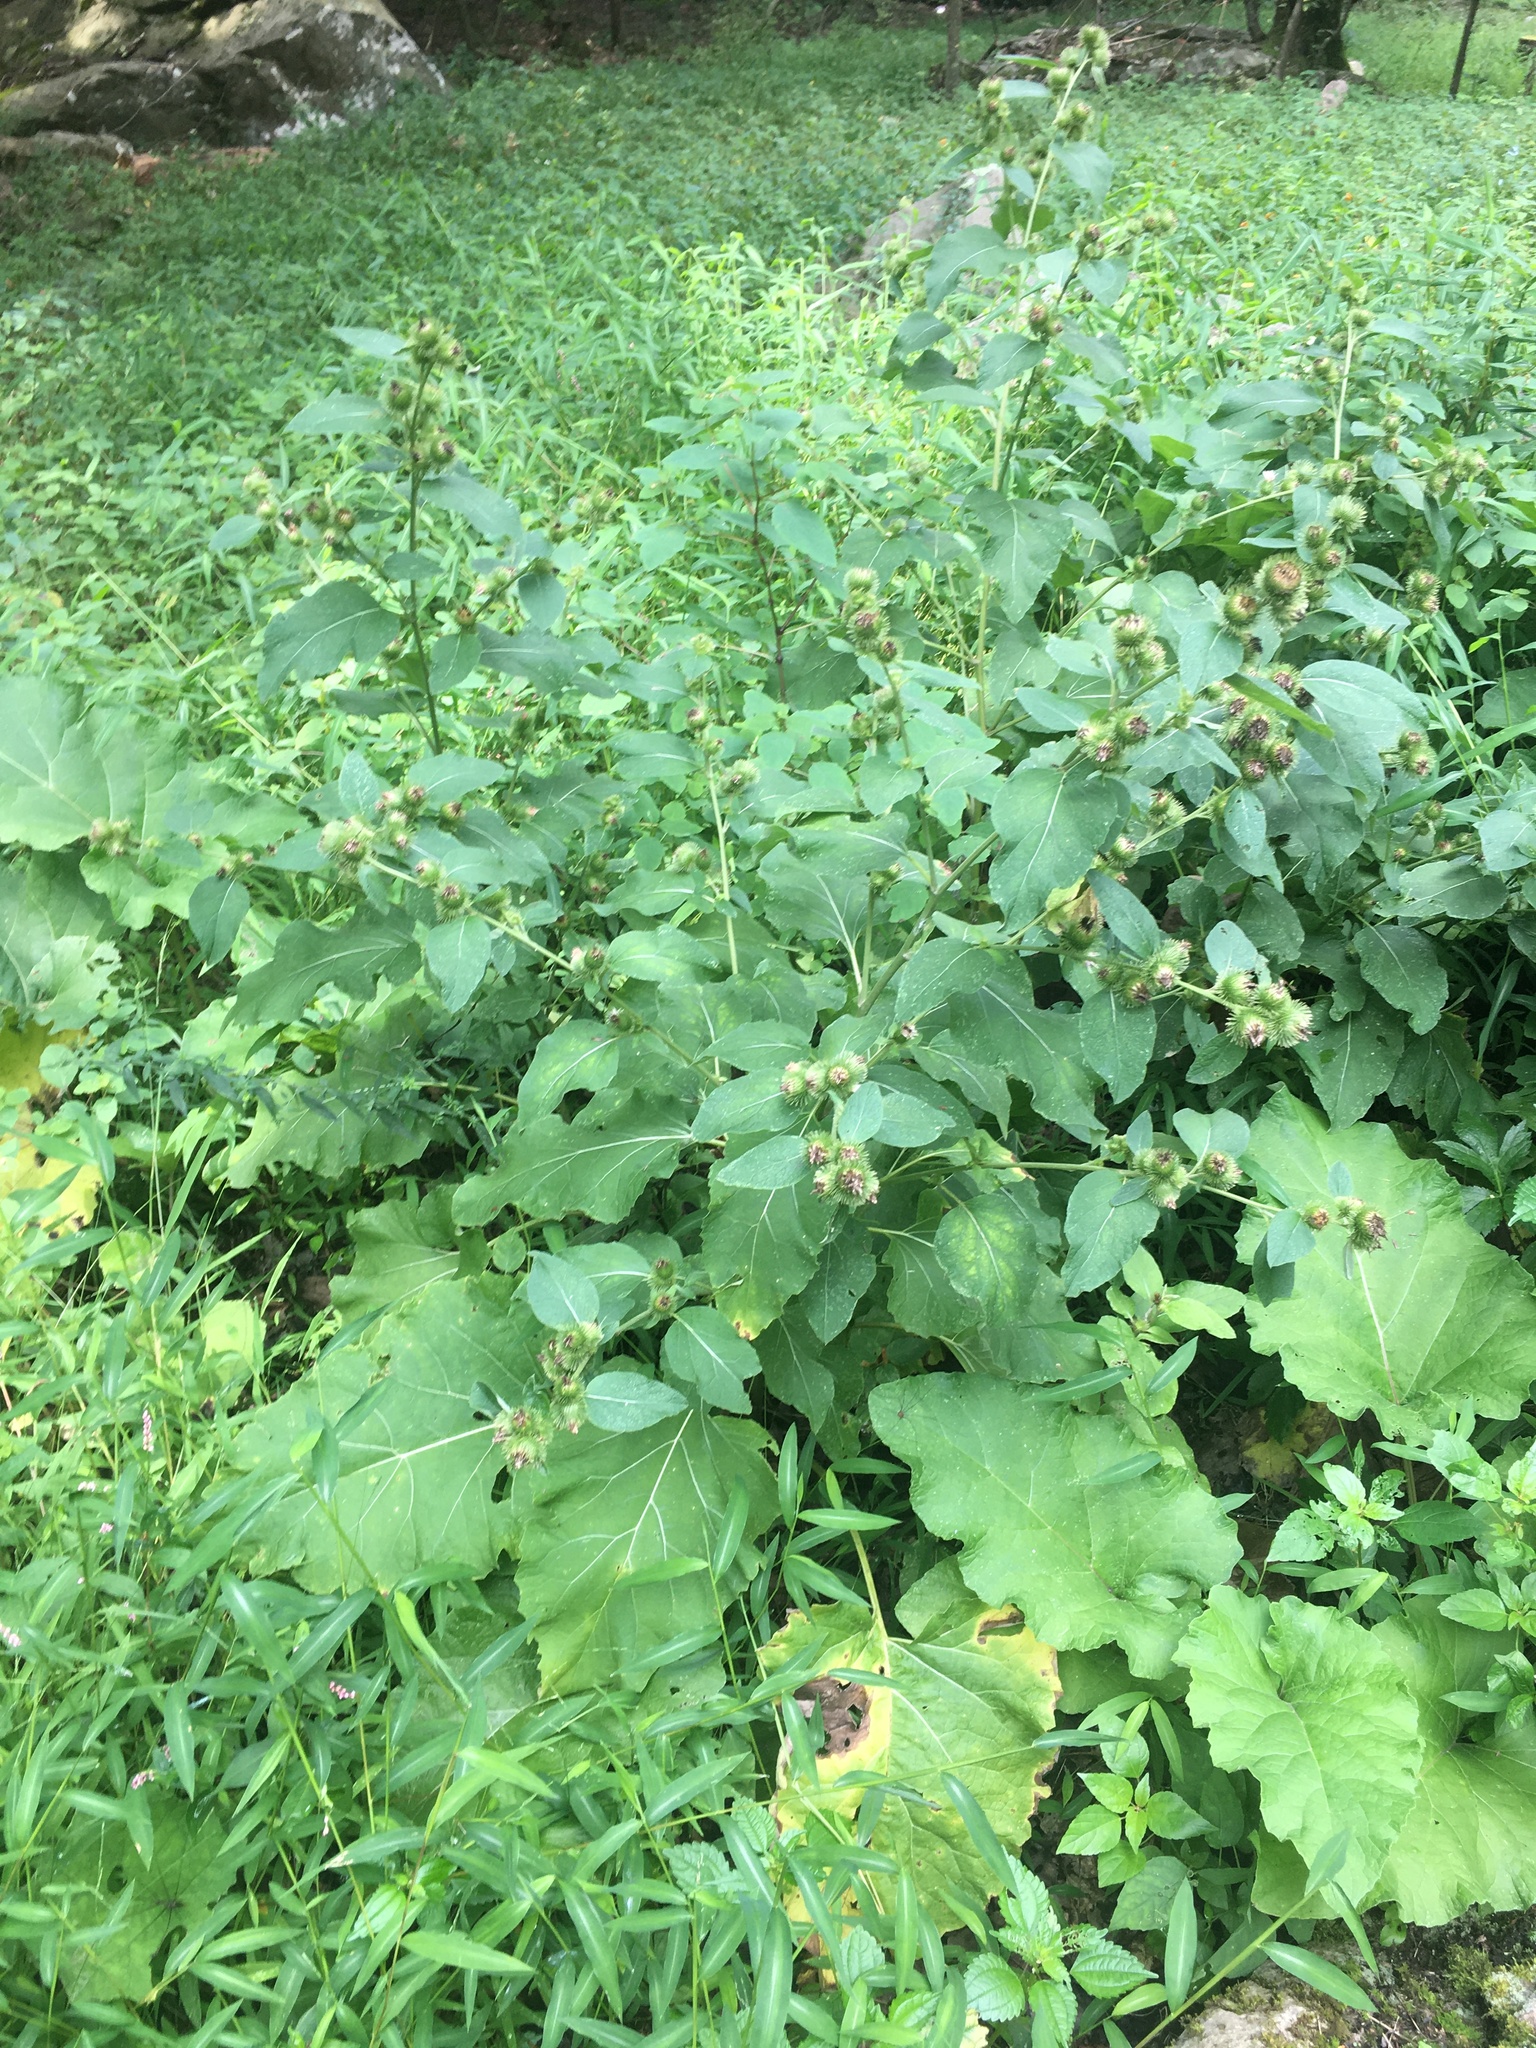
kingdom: Plantae
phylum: Tracheophyta
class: Magnoliopsida
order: Asterales
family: Asteraceae
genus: Arctium
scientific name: Arctium minus
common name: Lesser burdock
